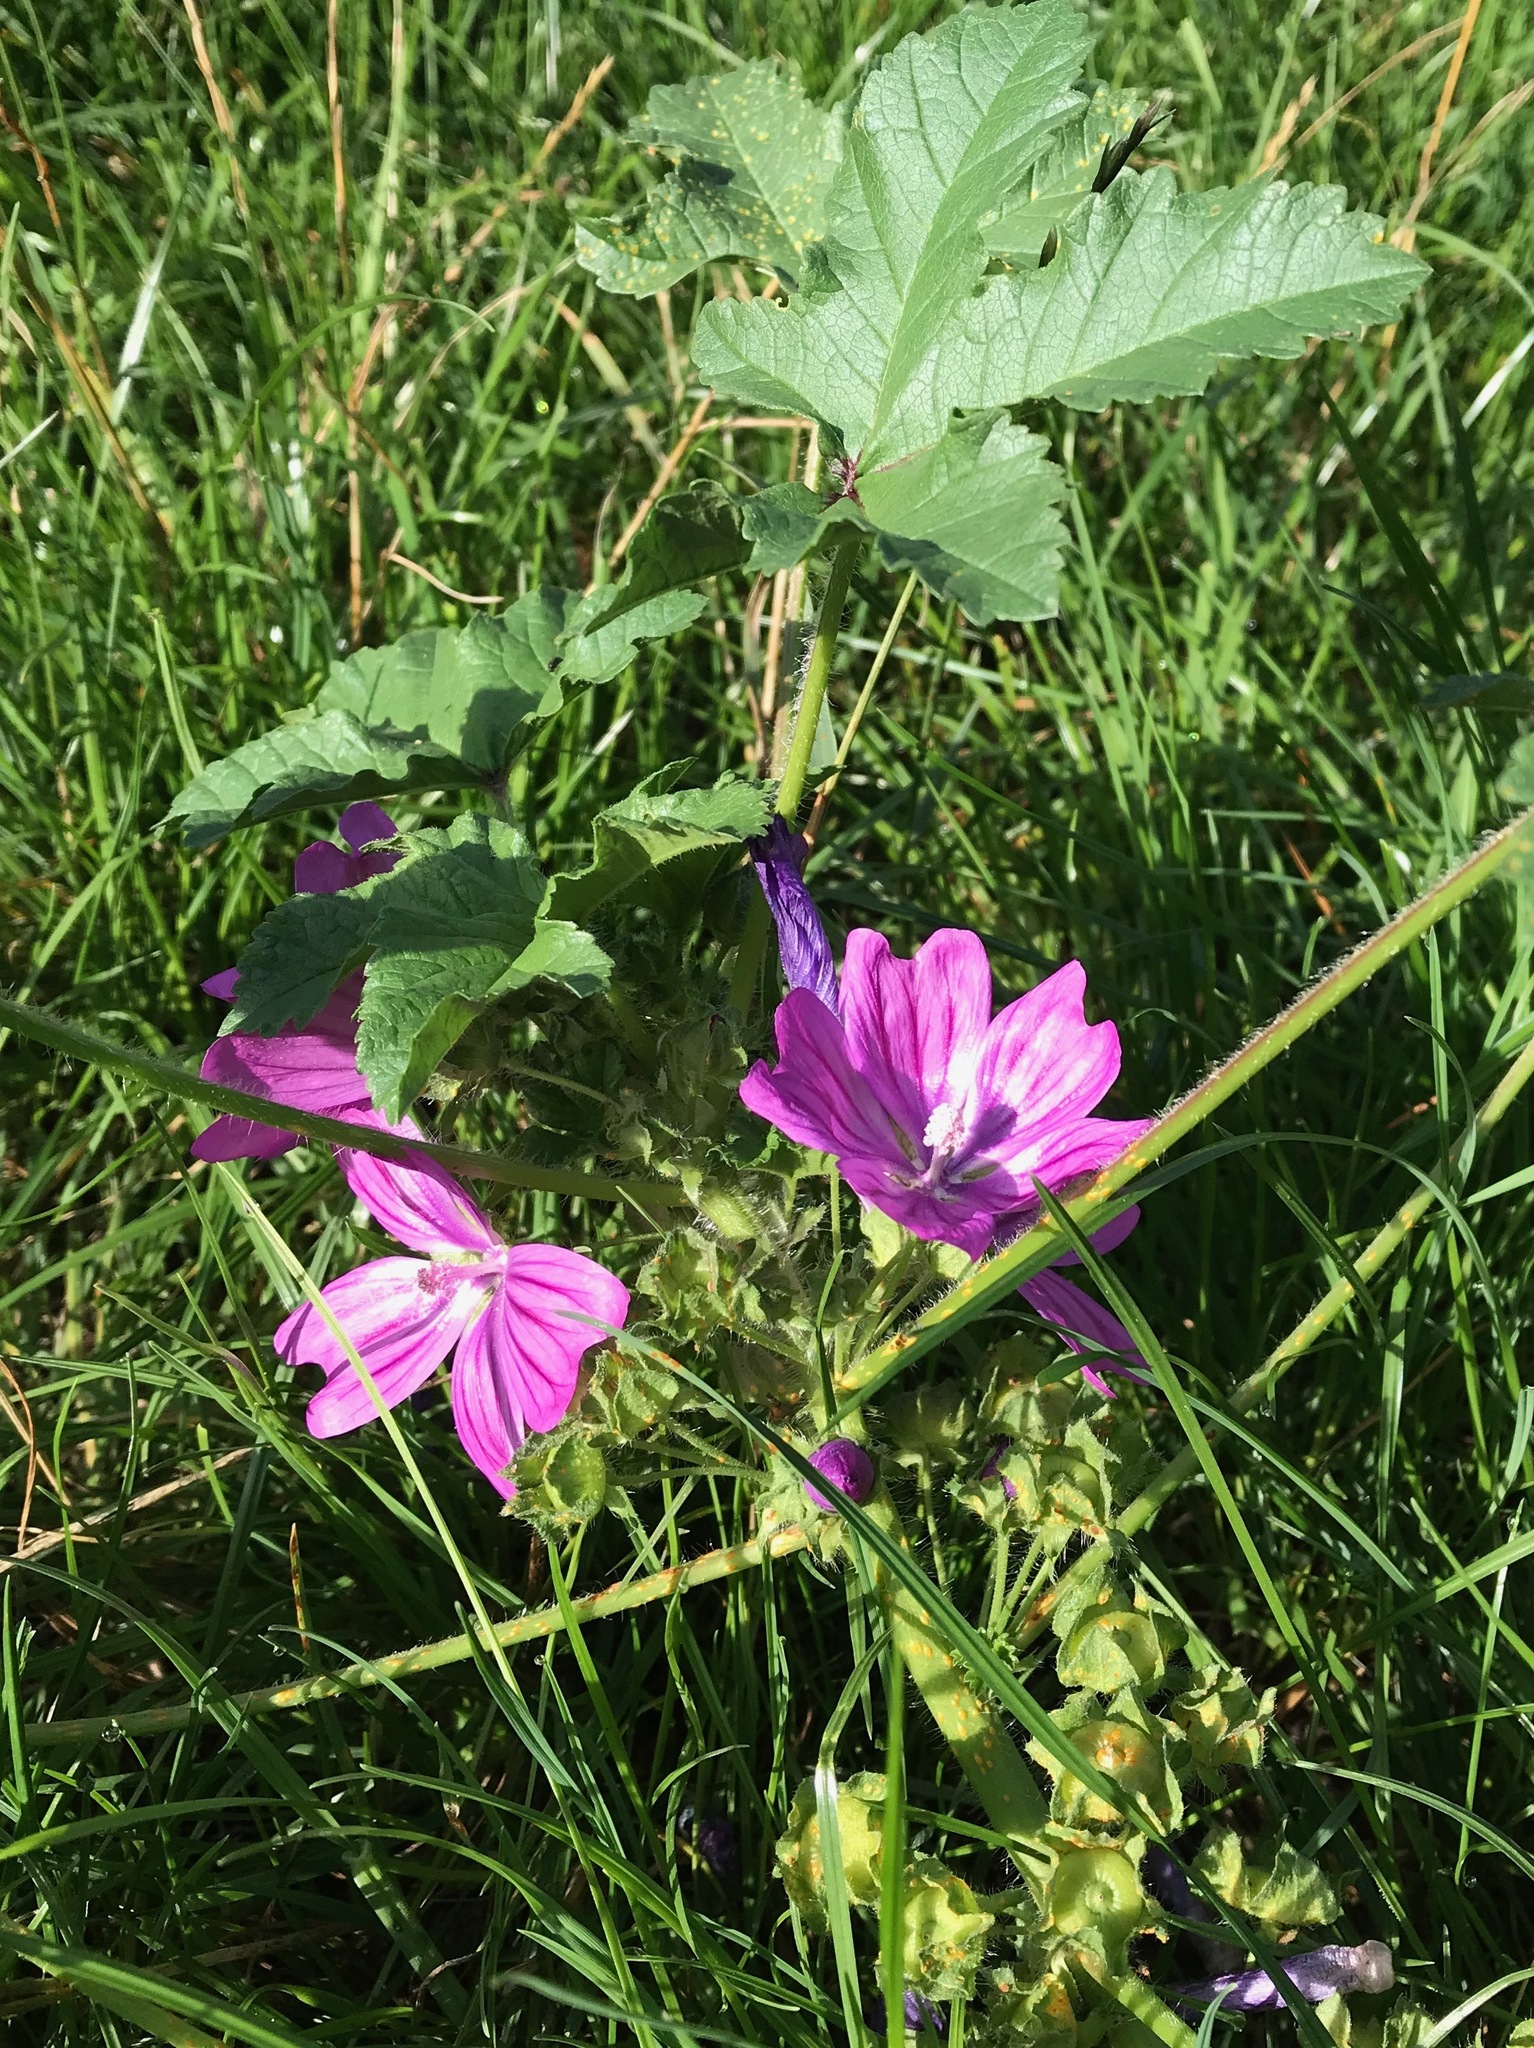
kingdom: Plantae
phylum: Tracheophyta
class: Magnoliopsida
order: Malvales
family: Malvaceae
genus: Malva
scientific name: Malva sylvestris
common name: Common mallow
